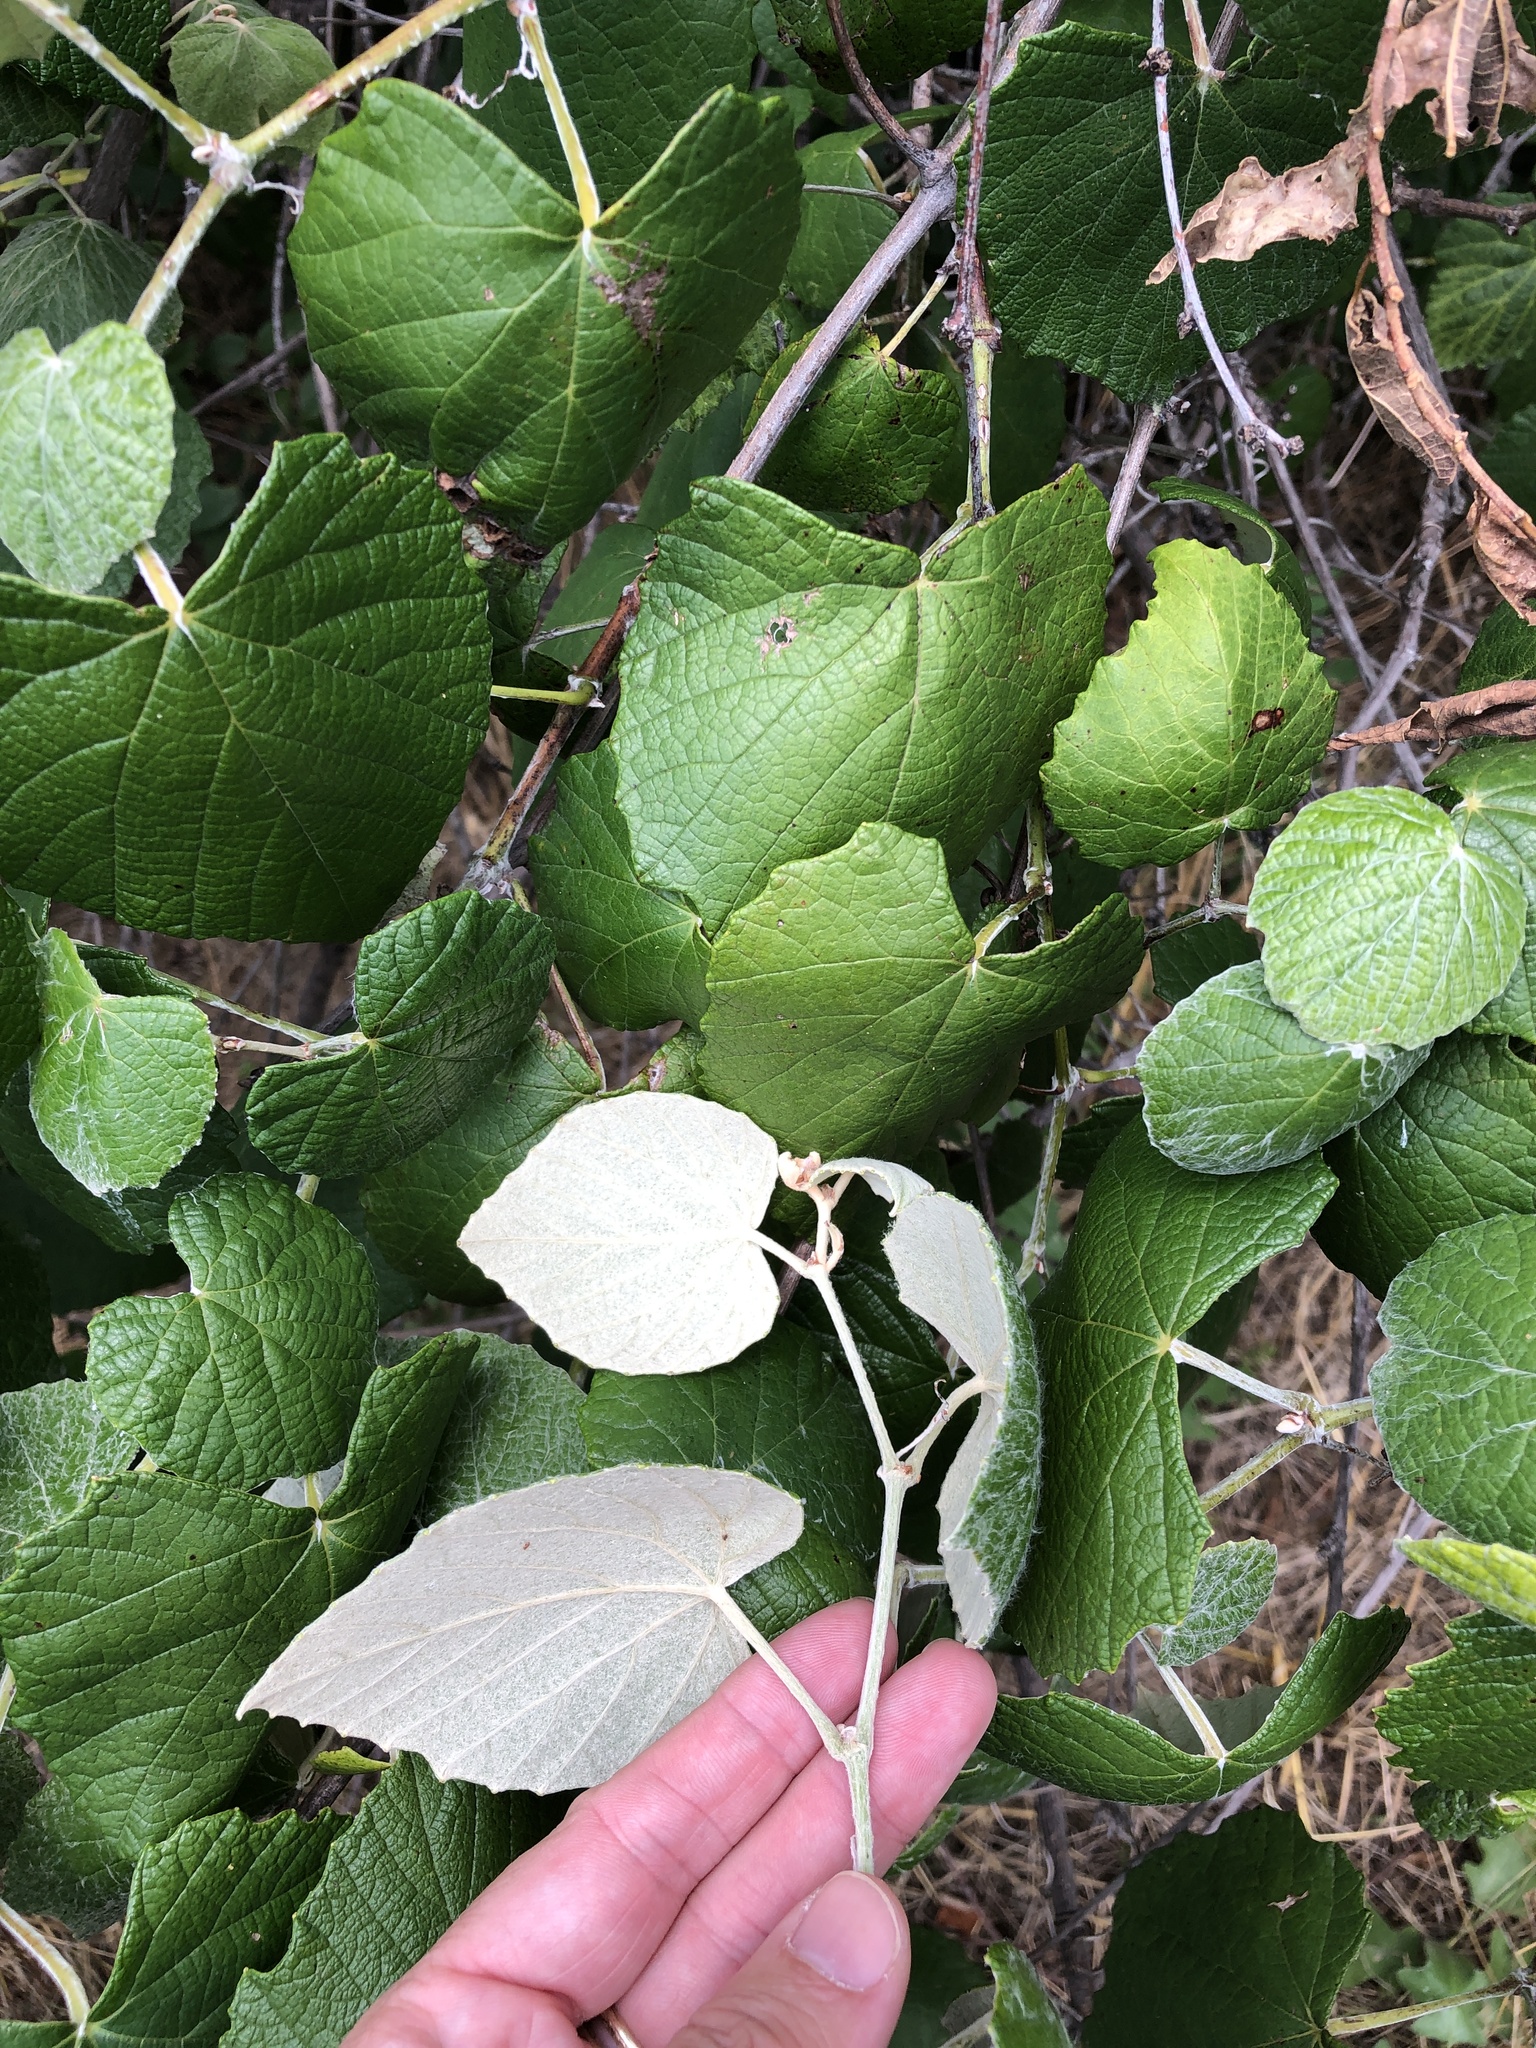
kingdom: Plantae
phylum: Tracheophyta
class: Magnoliopsida
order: Vitales
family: Vitaceae
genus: Vitis
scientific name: Vitis mustangensis
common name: Mustang grape
